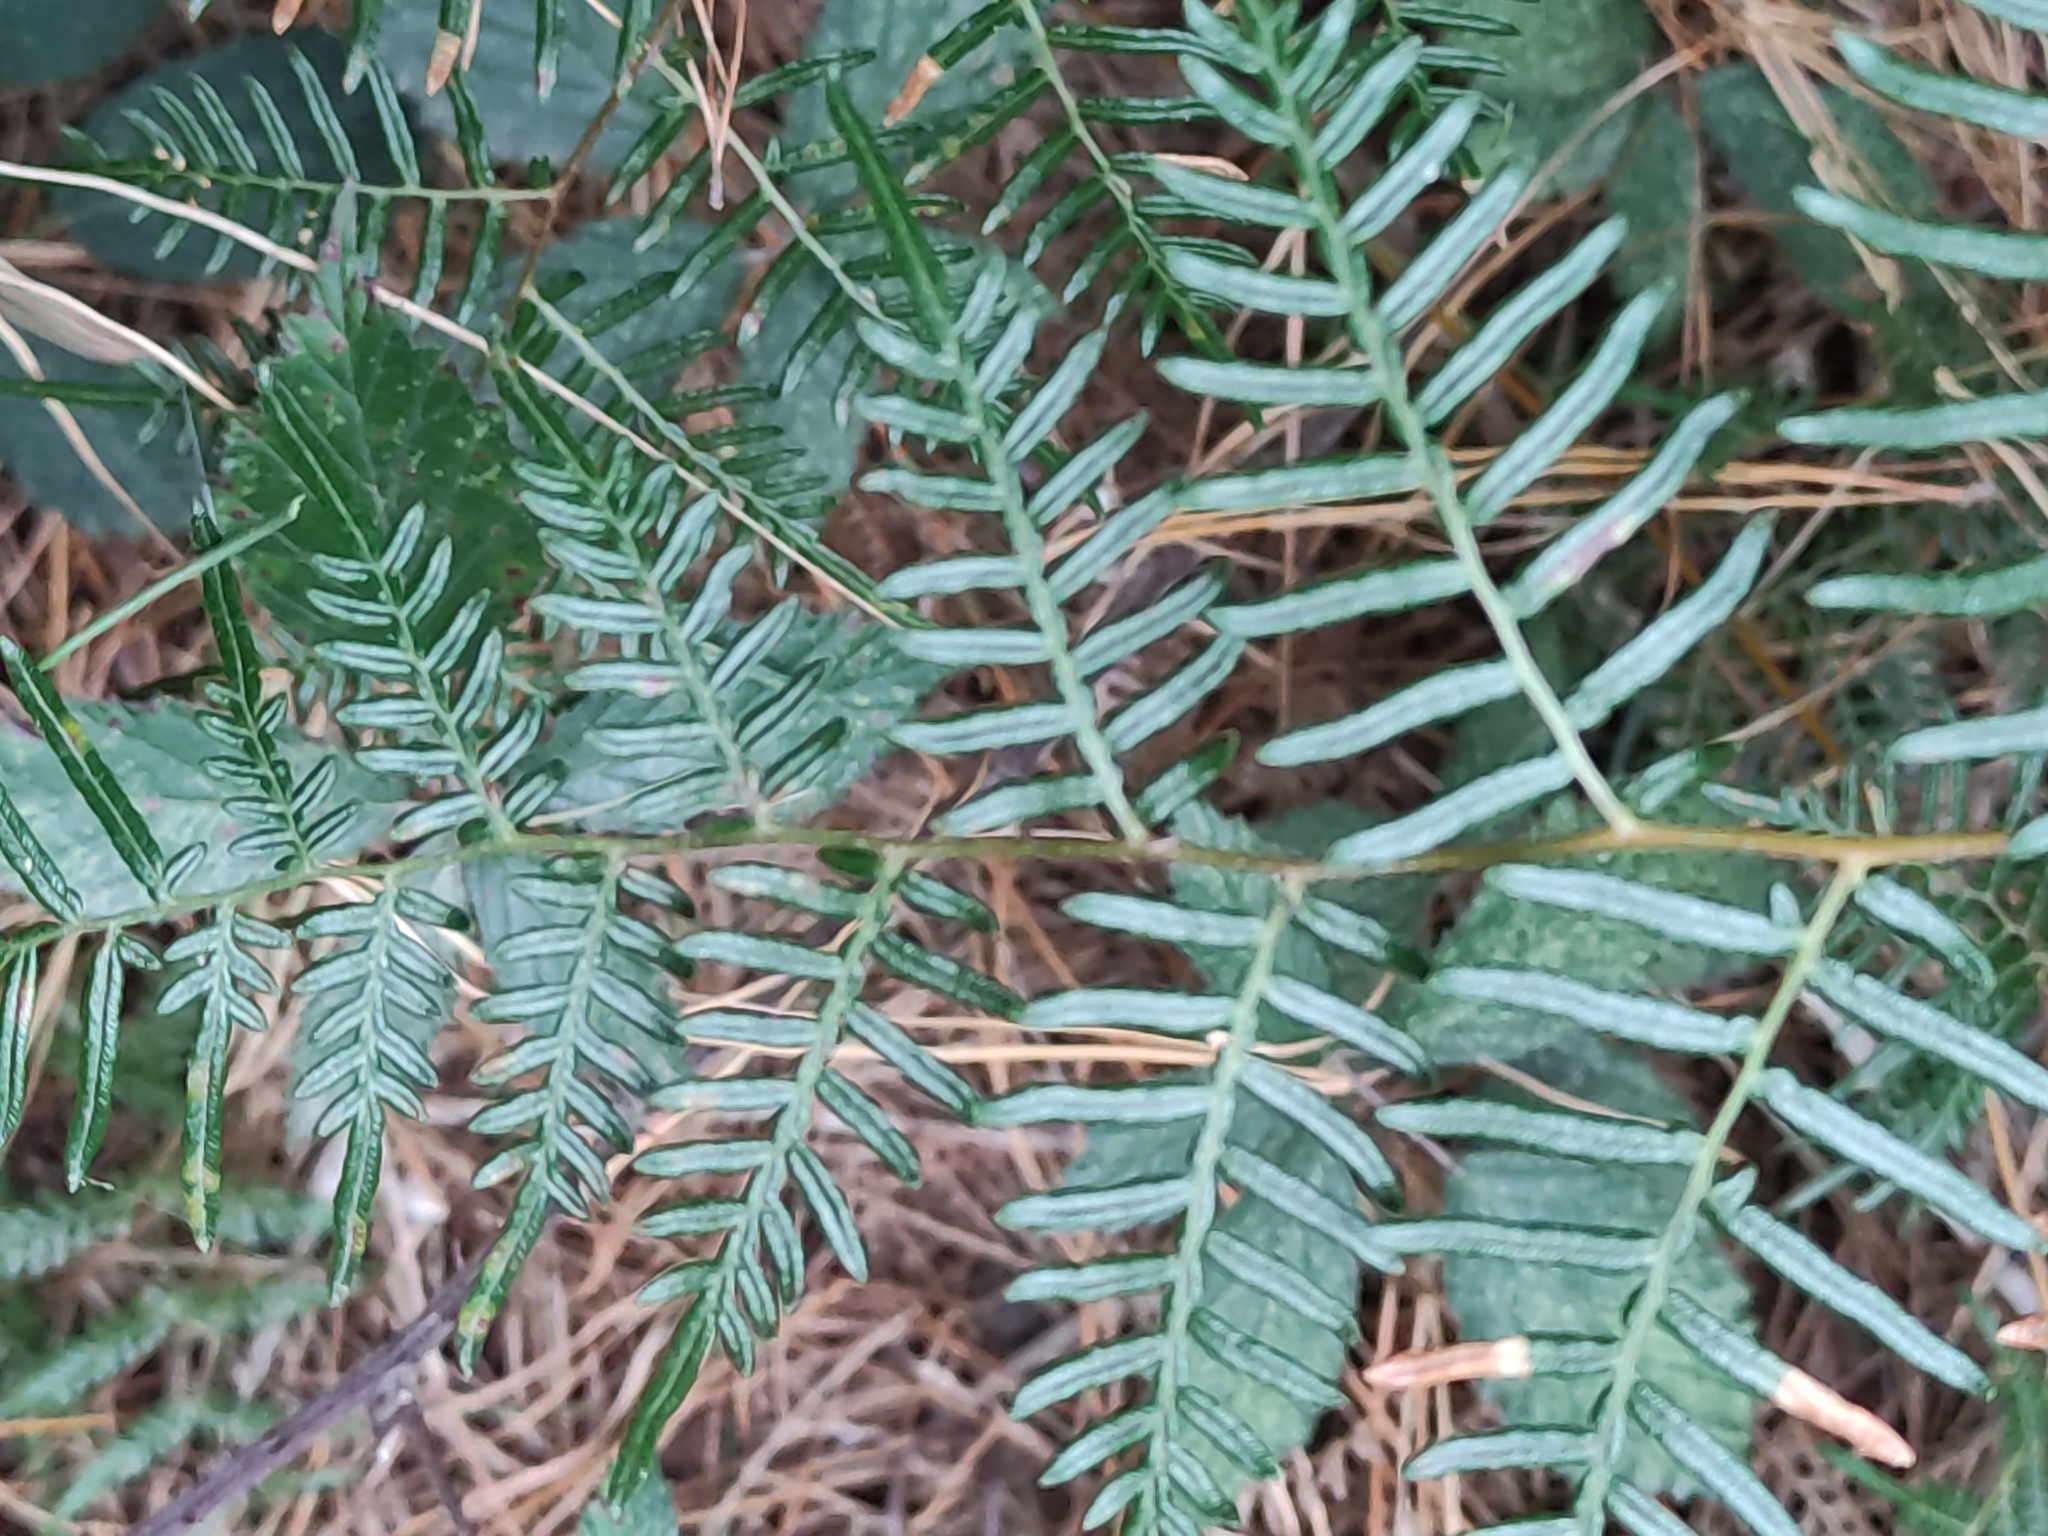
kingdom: Plantae
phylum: Tracheophyta
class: Polypodiopsida
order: Polypodiales
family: Dennstaedtiaceae
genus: Pteridium
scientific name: Pteridium esculentum
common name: Bracken fern
